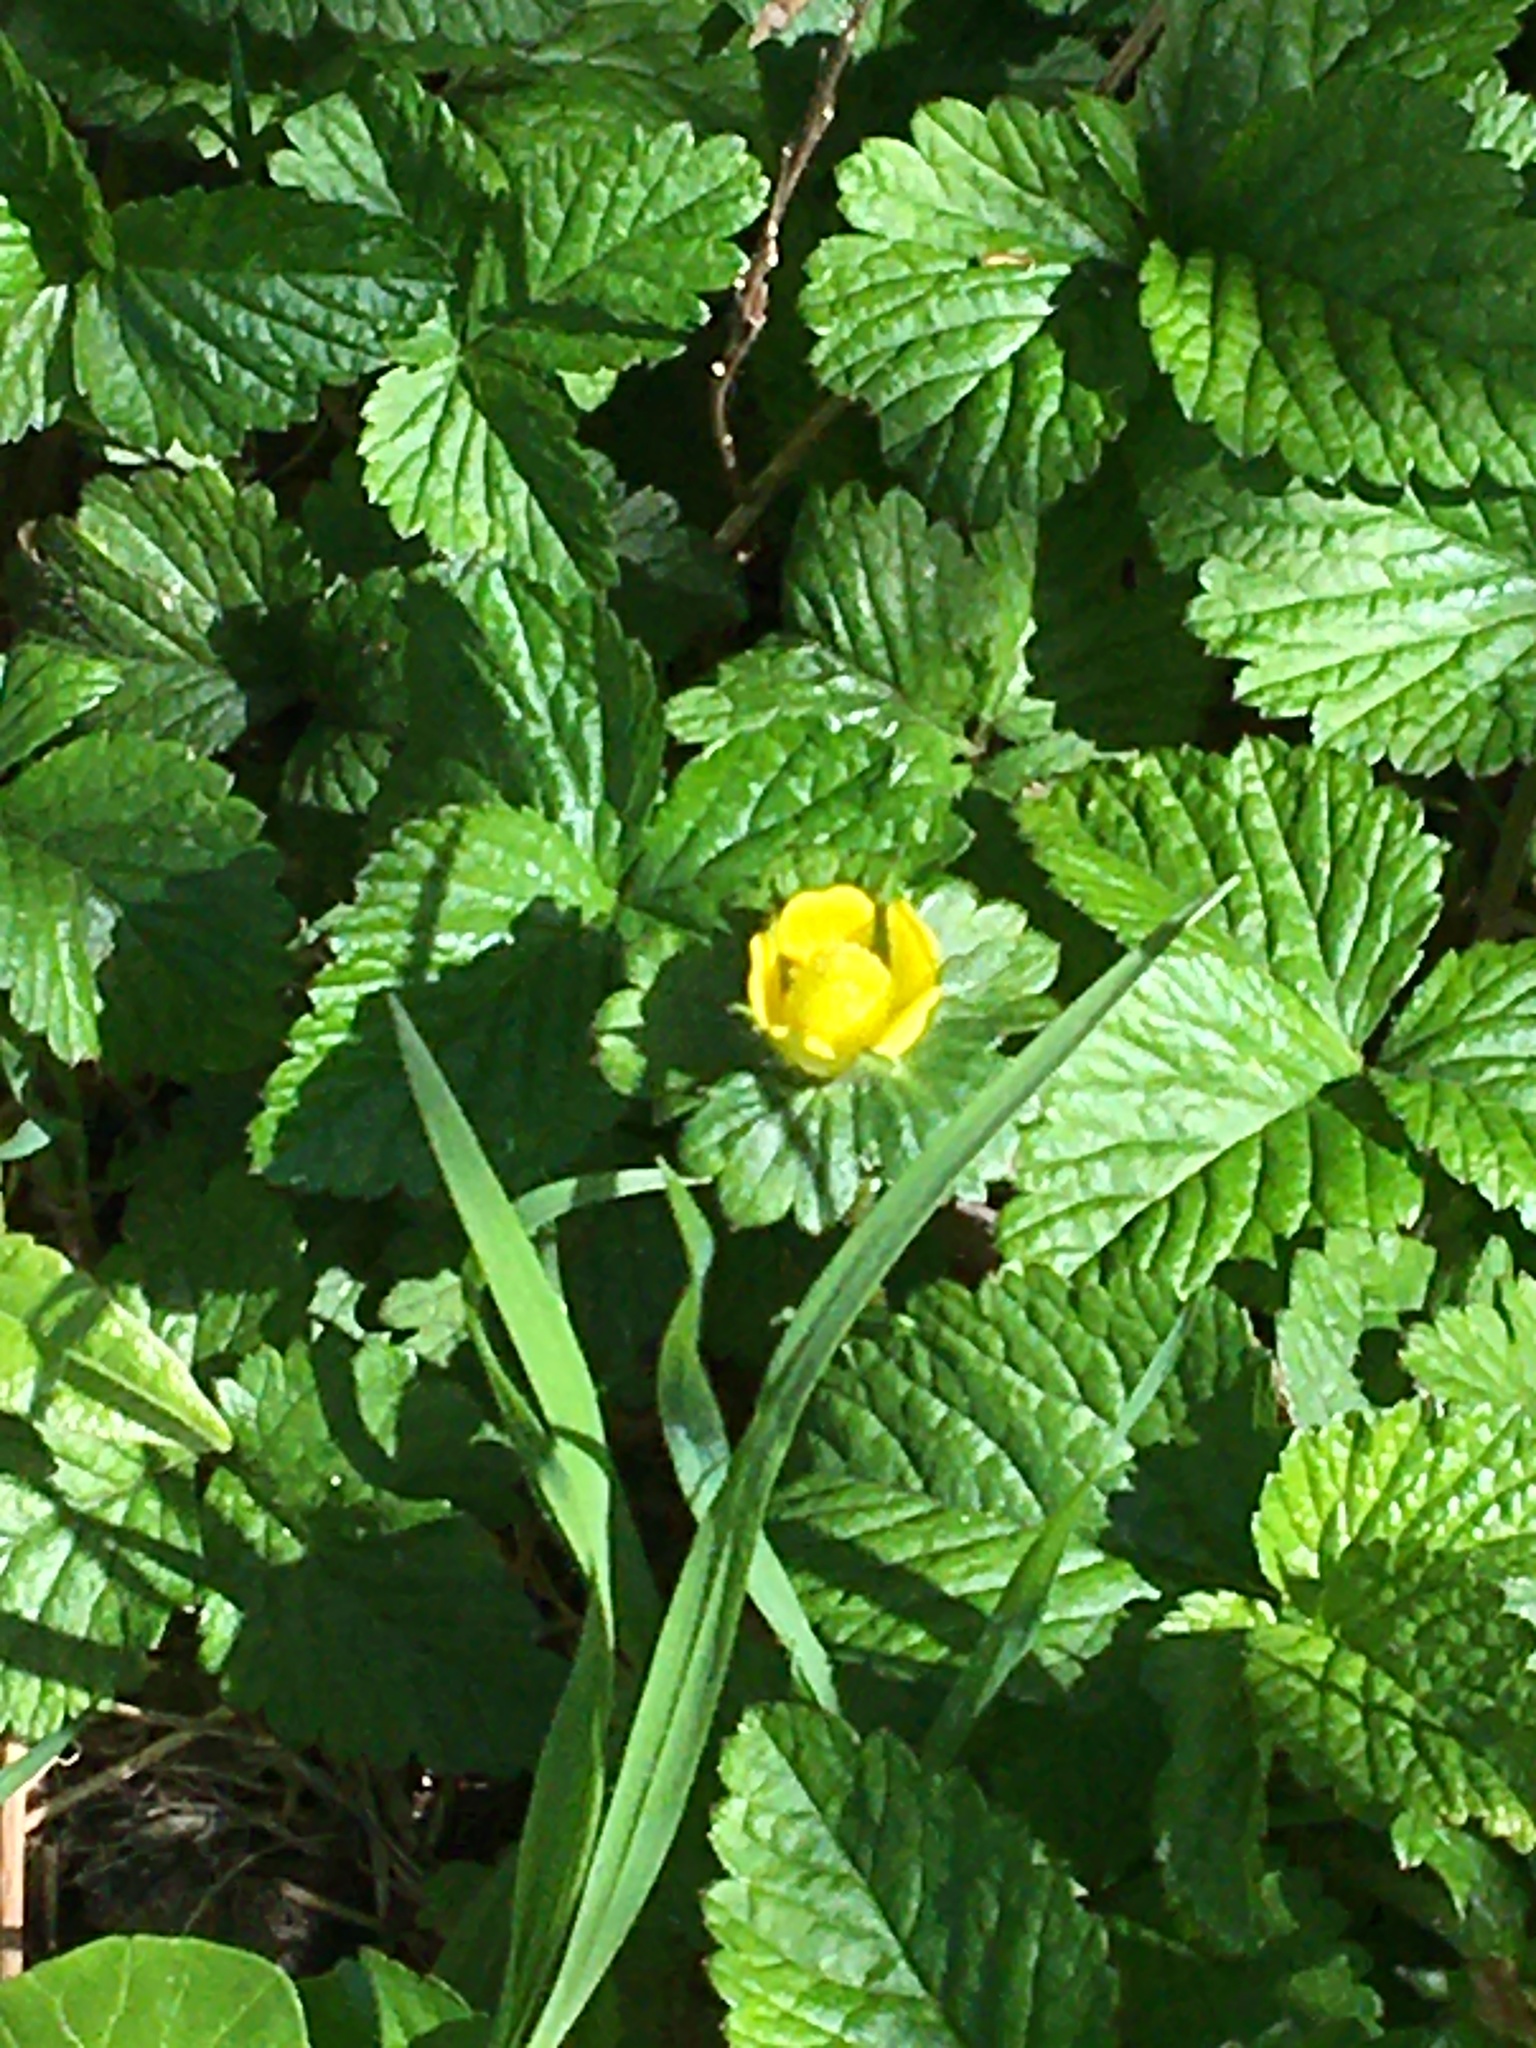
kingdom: Plantae
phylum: Tracheophyta
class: Magnoliopsida
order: Rosales
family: Rosaceae
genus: Potentilla
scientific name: Potentilla indica
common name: Yellow-flowered strawberry
